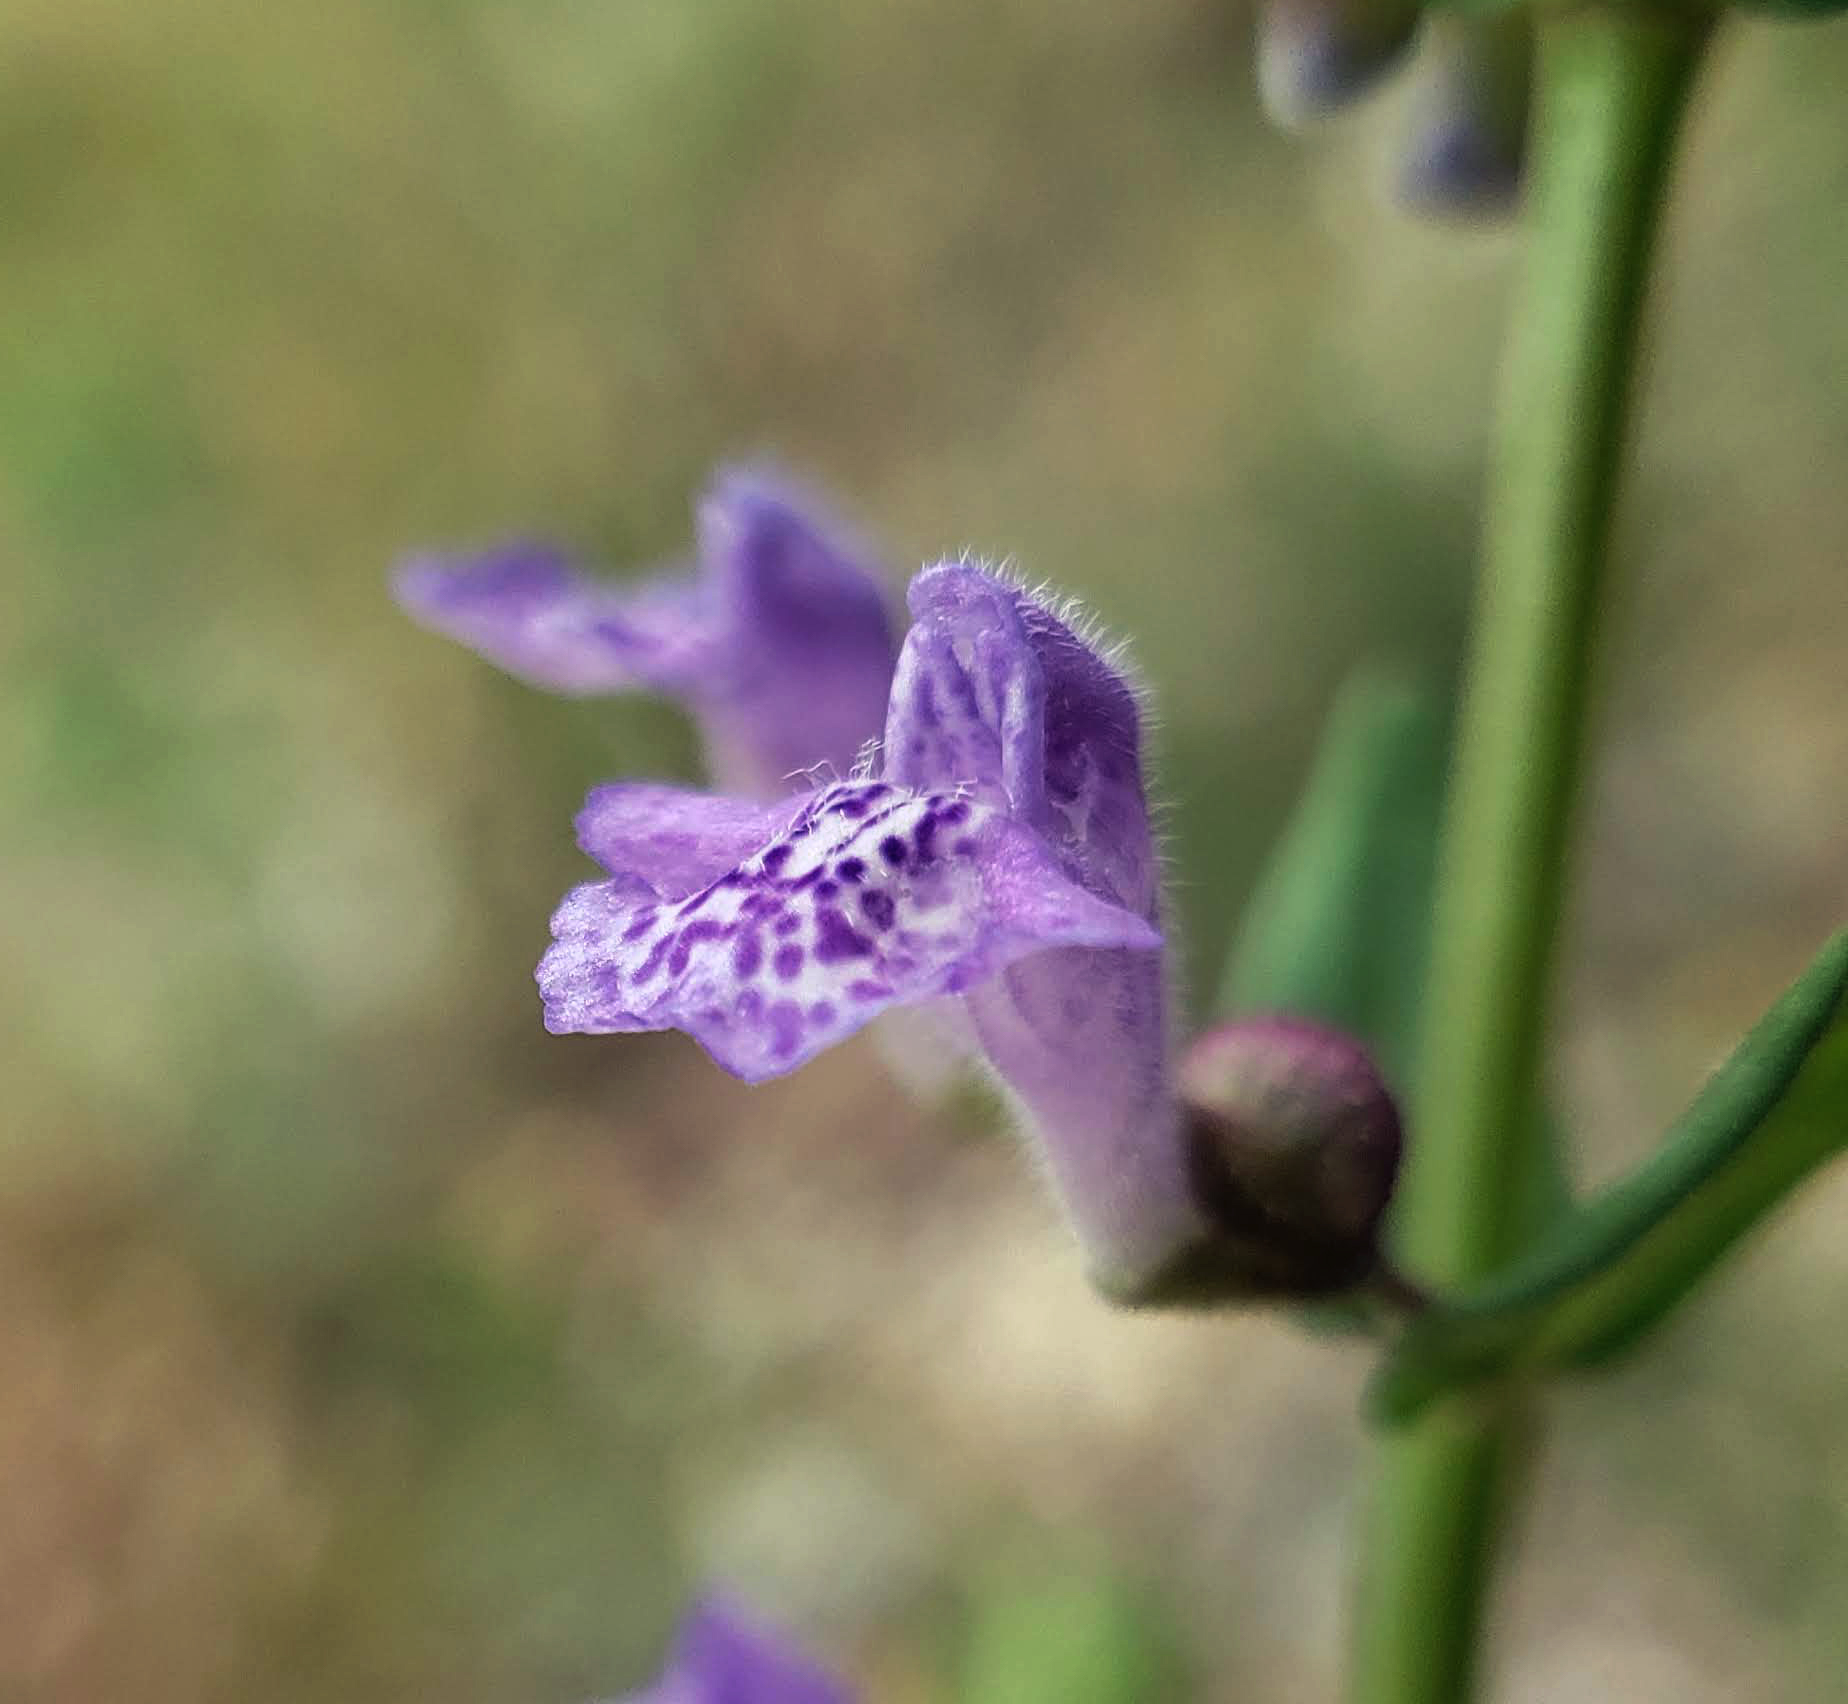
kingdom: Plantae
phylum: Tracheophyta
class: Magnoliopsida
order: Lamiales
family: Lamiaceae
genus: Scutellaria
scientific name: Scutellaria parvula
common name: Little scullcap
